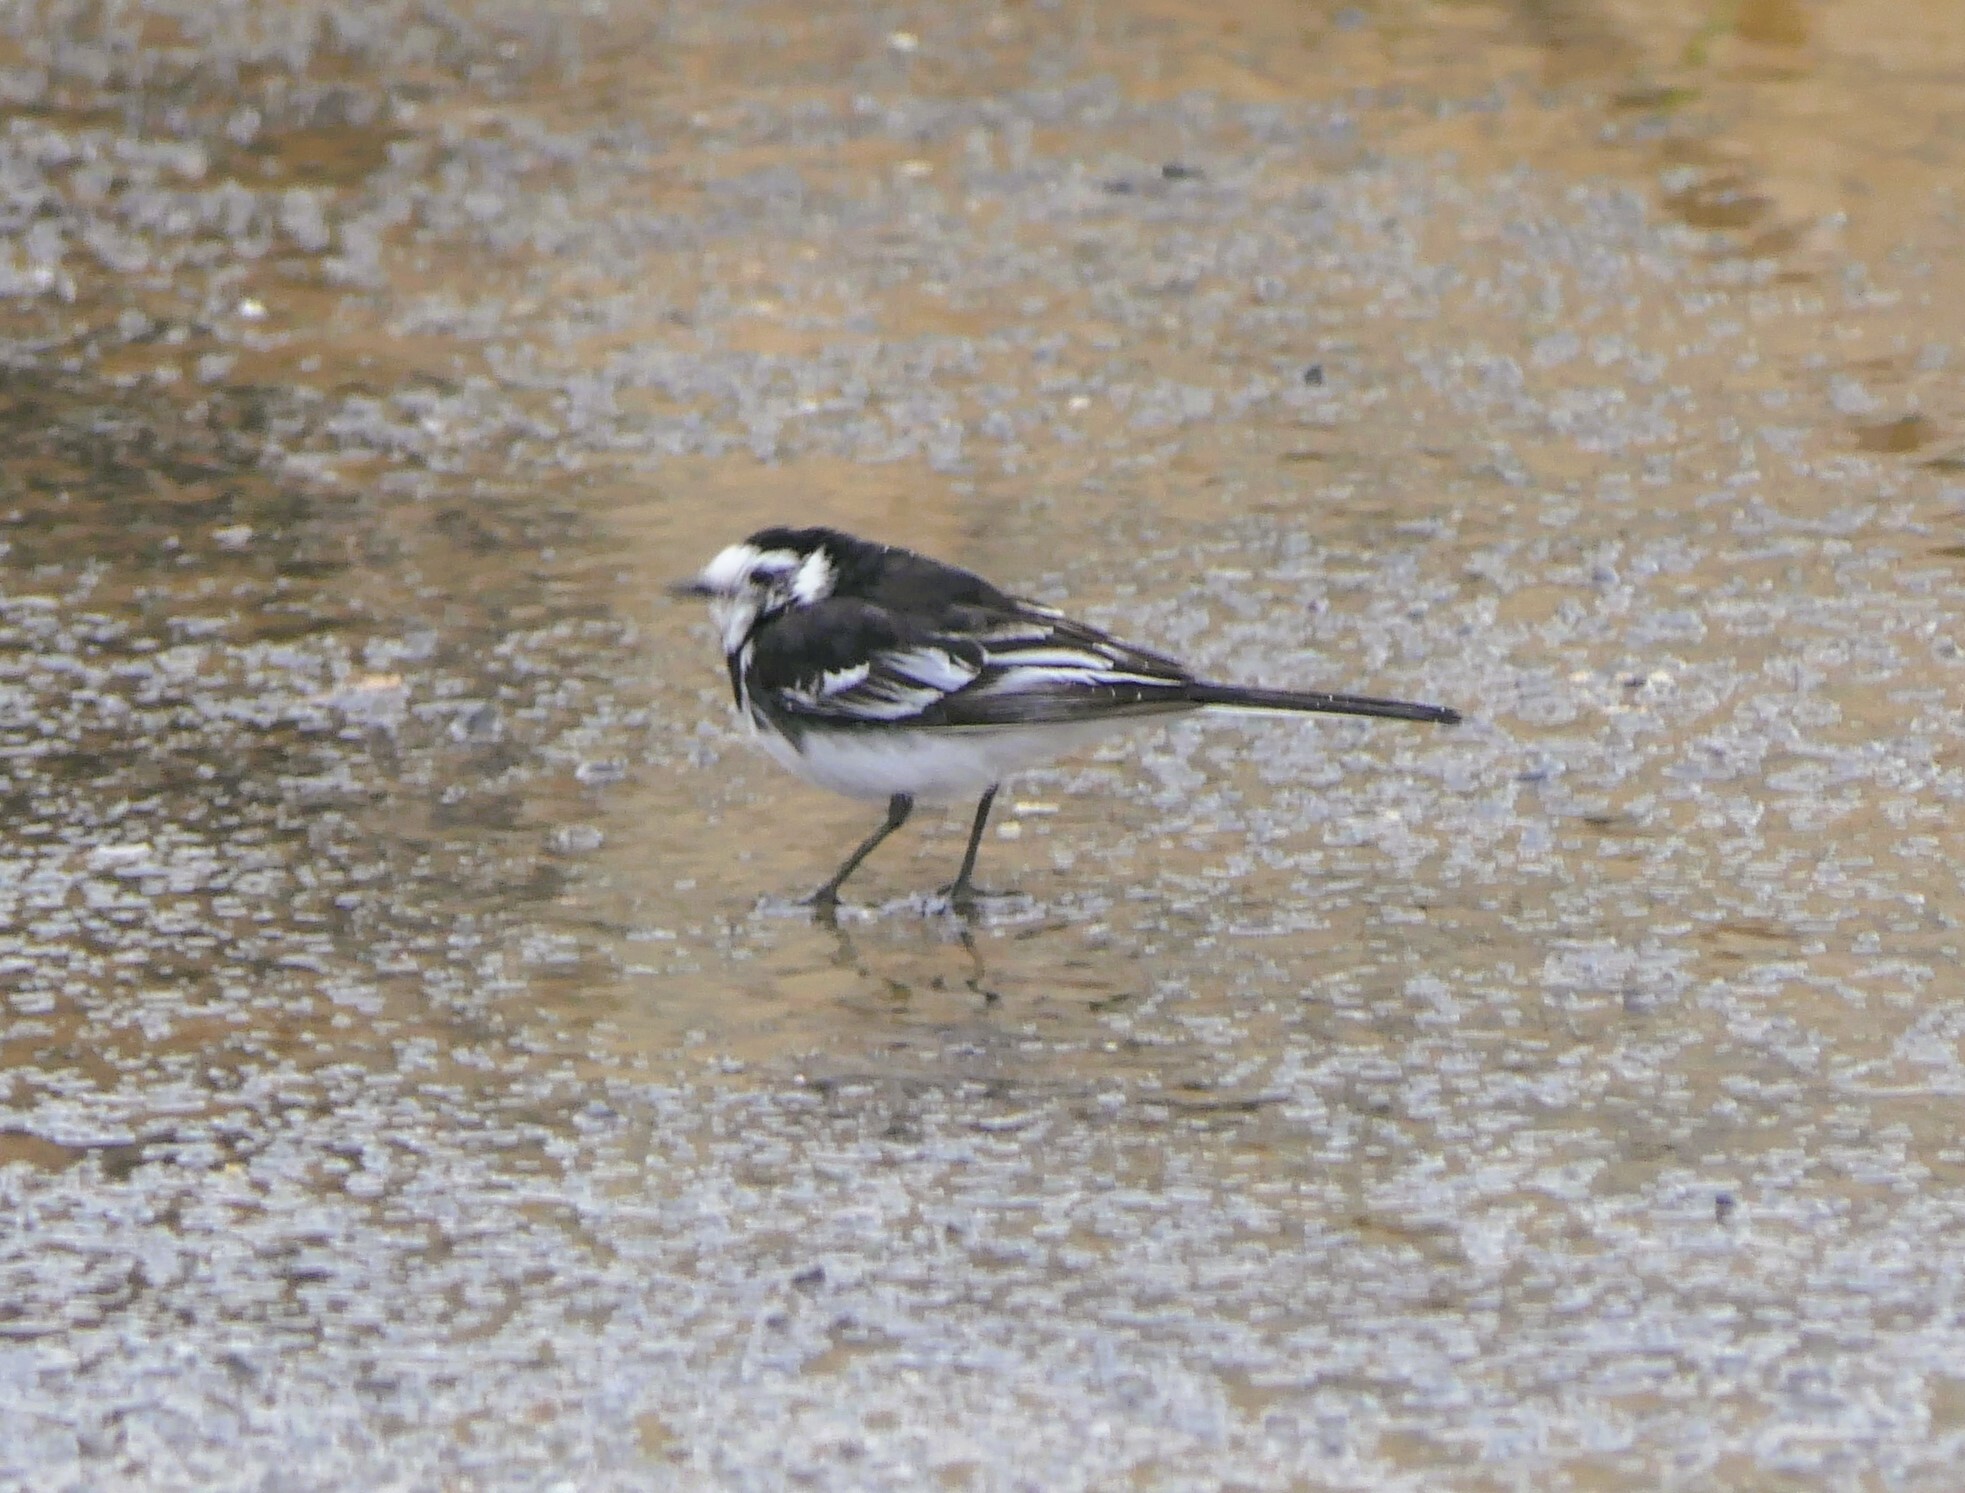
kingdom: Animalia
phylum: Chordata
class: Aves
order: Passeriformes
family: Motacillidae
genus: Motacilla
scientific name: Motacilla alba
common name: White wagtail
